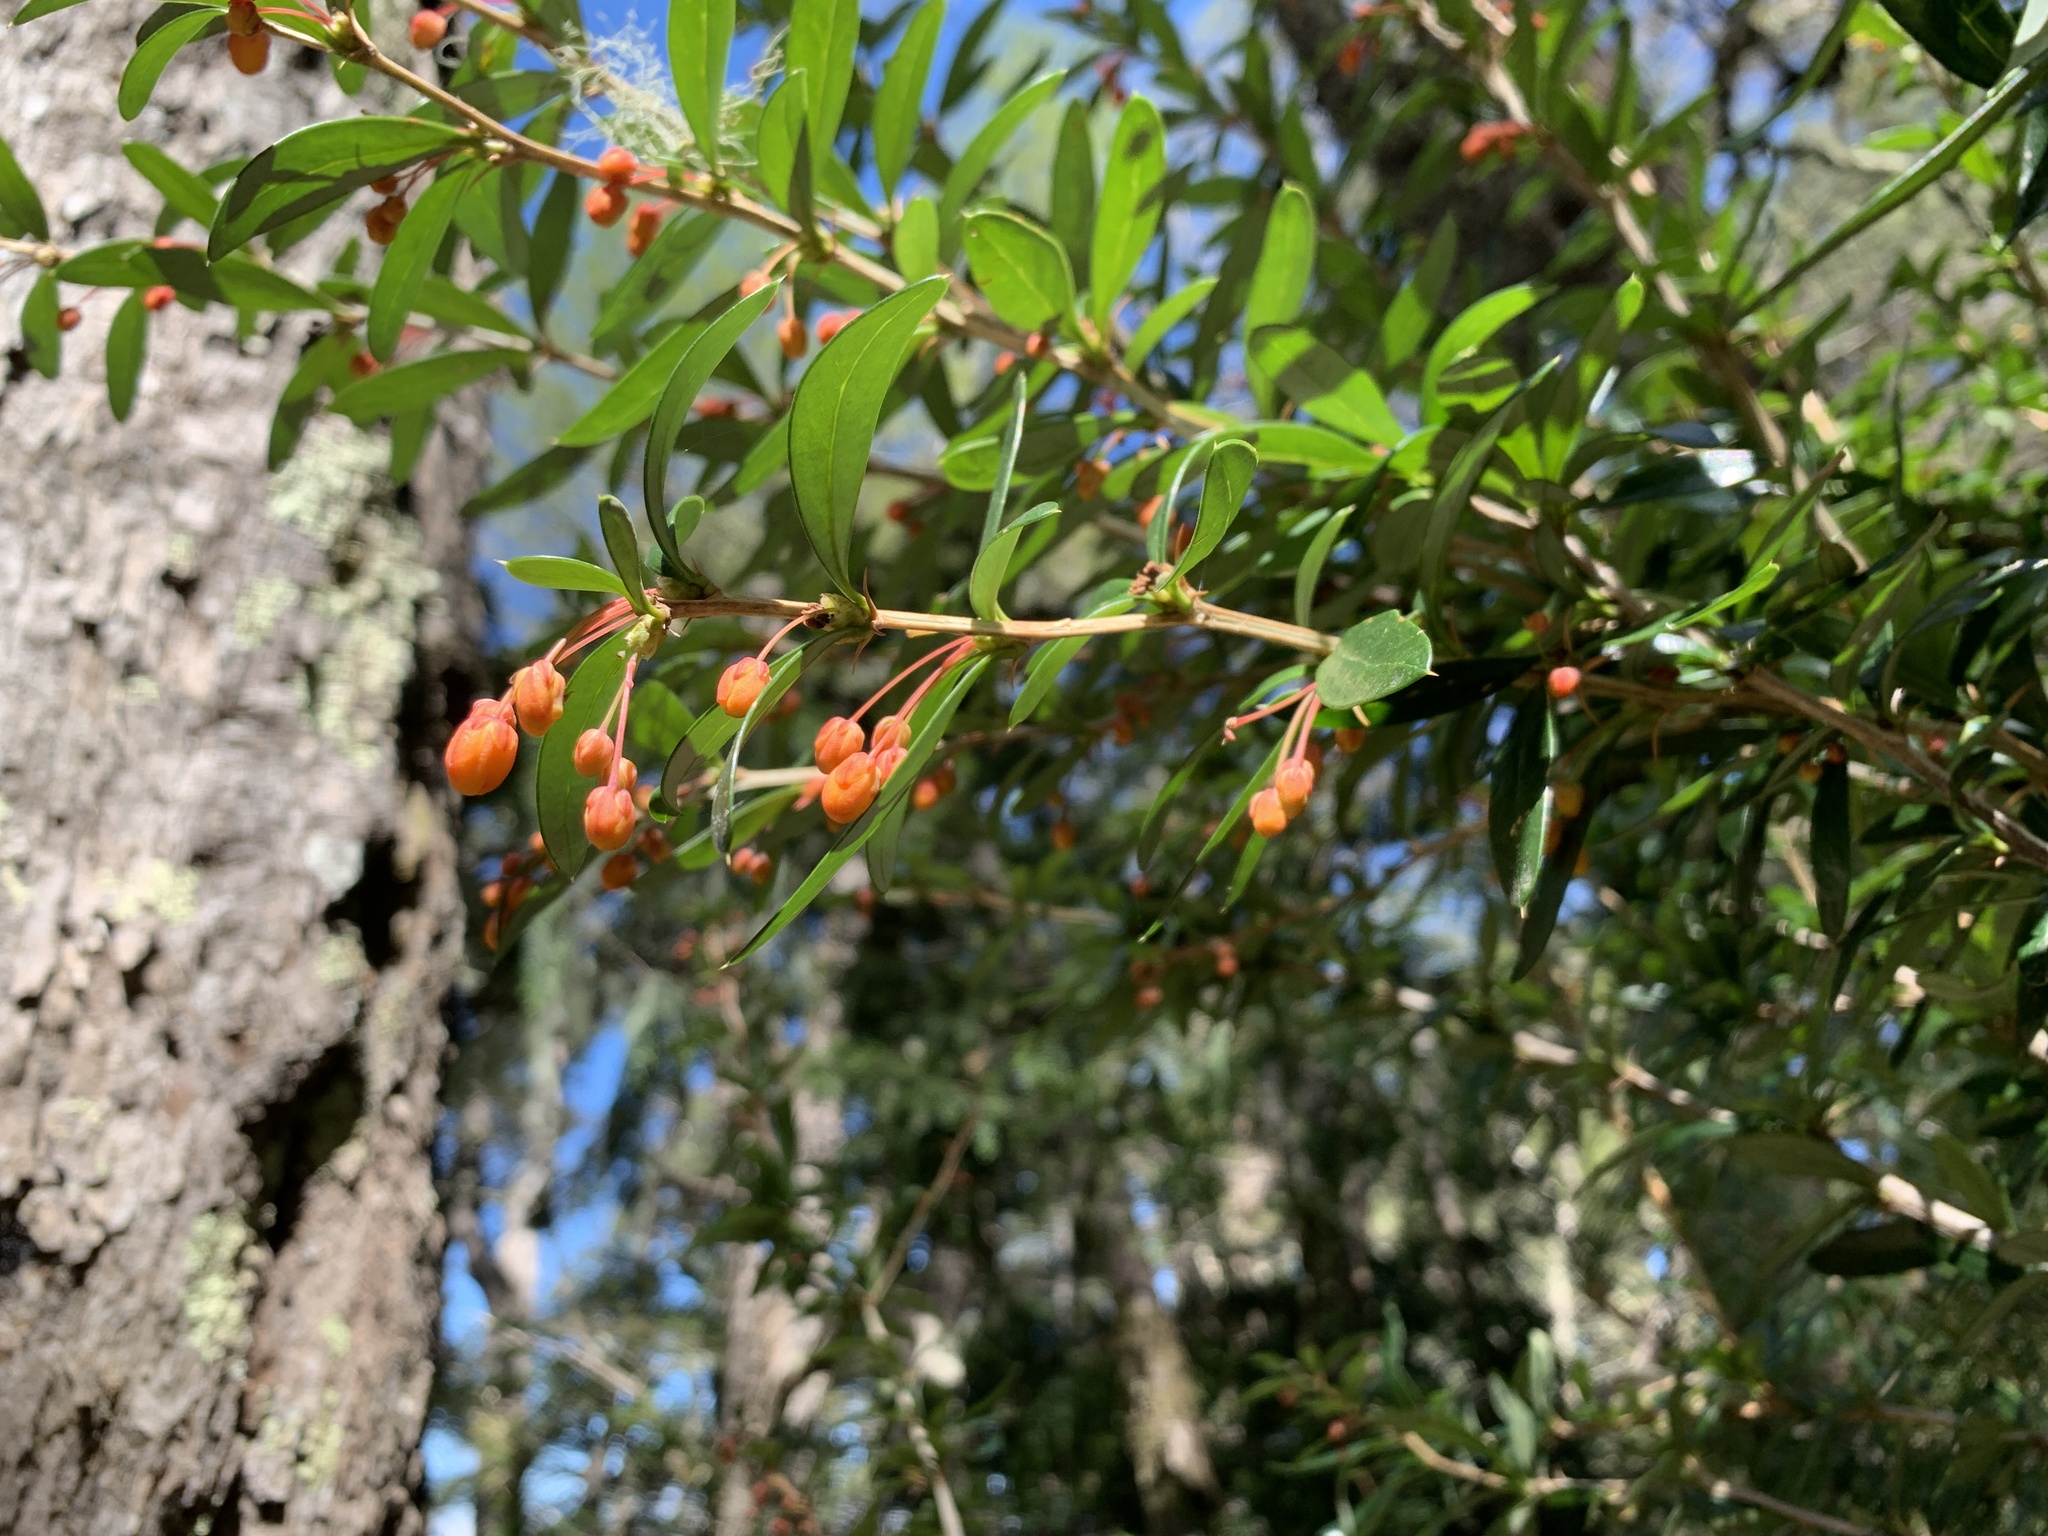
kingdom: Plantae
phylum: Tracheophyta
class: Magnoliopsida
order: Ranunculales
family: Berberidaceae
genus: Berberis
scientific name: Berberis trigona
